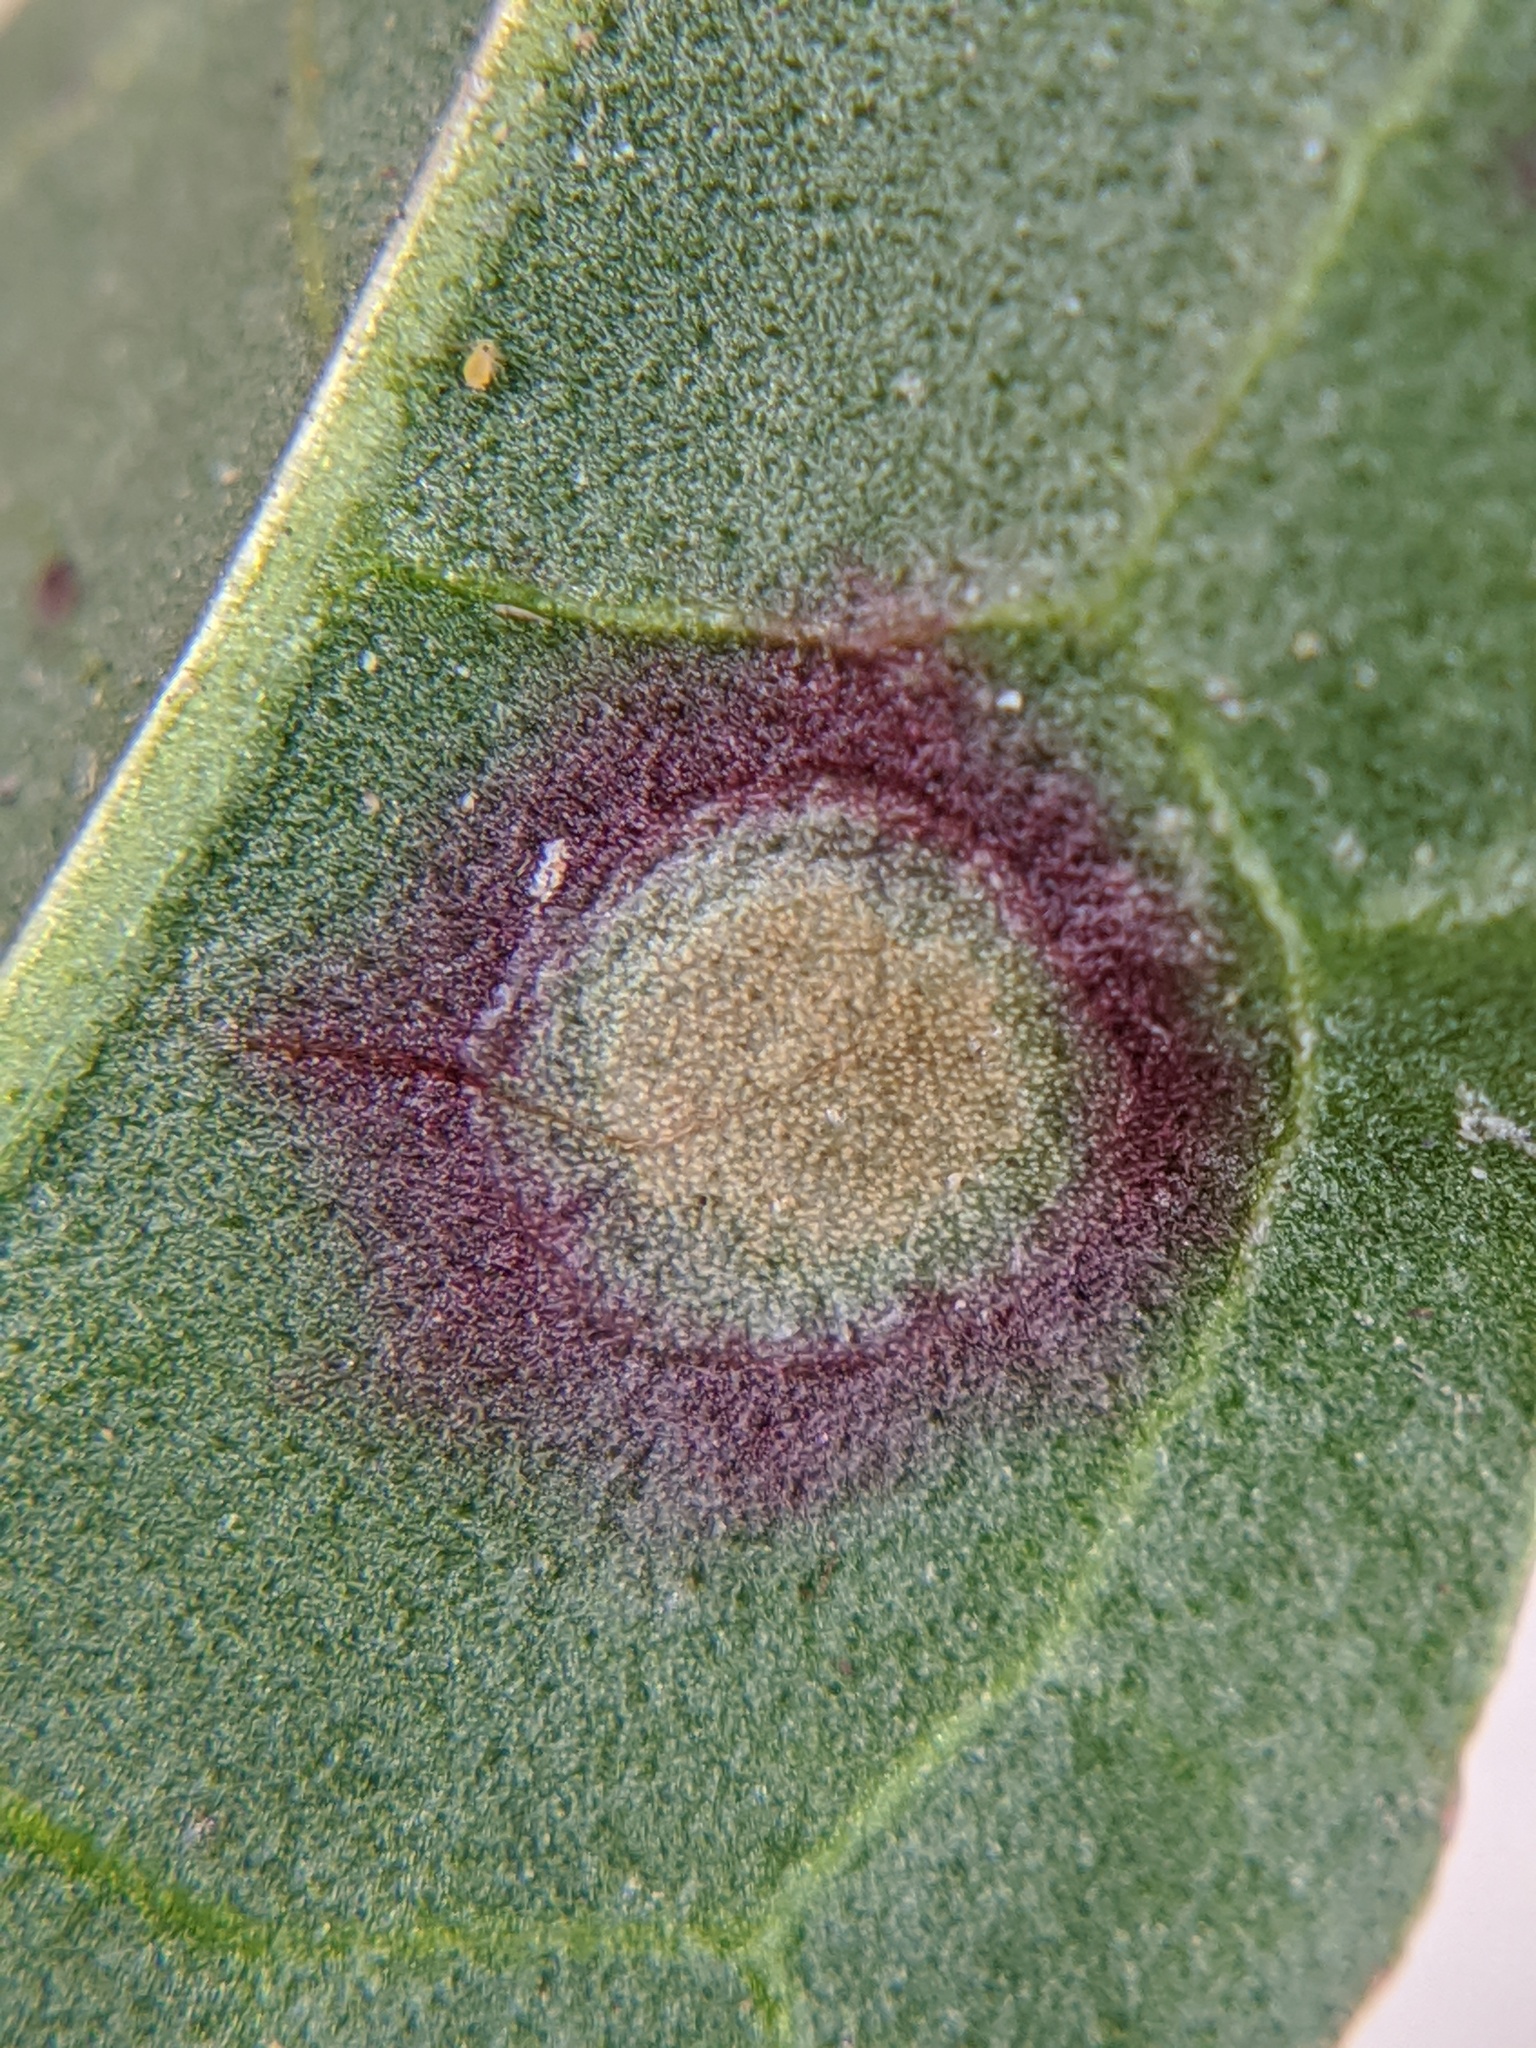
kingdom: Fungi
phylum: Ascomycota
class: Dothideomycetes
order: Mycosphaerellales
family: Mycosphaerellaceae
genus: Ramularia
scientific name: Ramularia rubella
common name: Red dock spot
